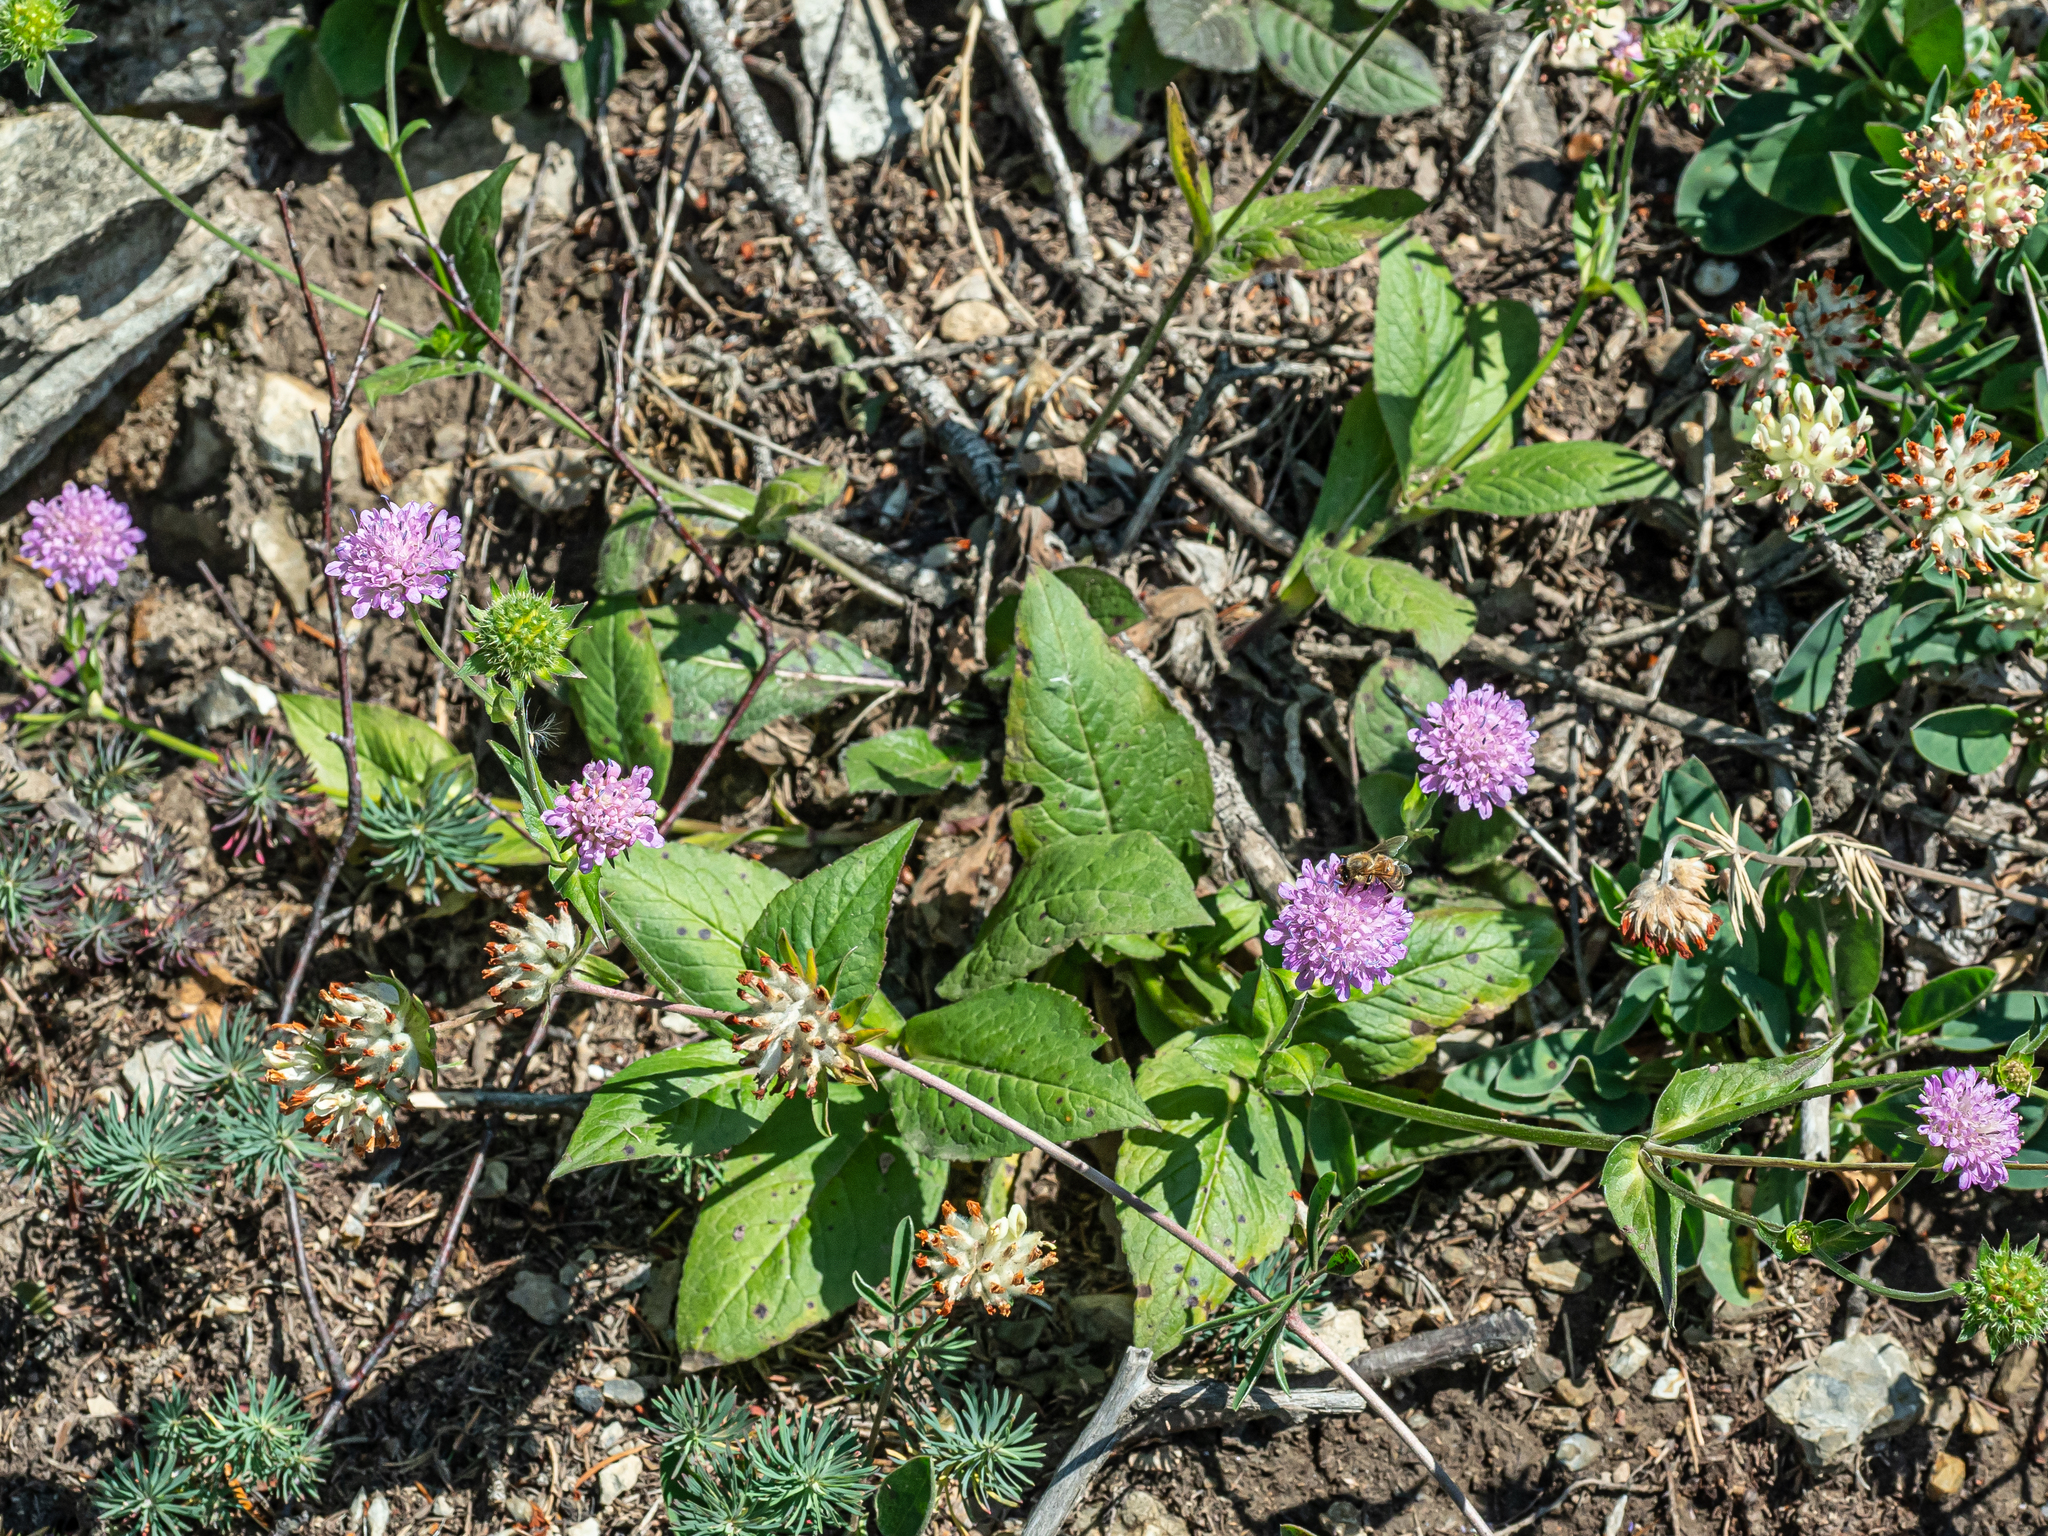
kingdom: Plantae
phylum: Tracheophyta
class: Magnoliopsida
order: Dipsacales
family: Caprifoliaceae
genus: Knautia
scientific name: Knautia drymeia
